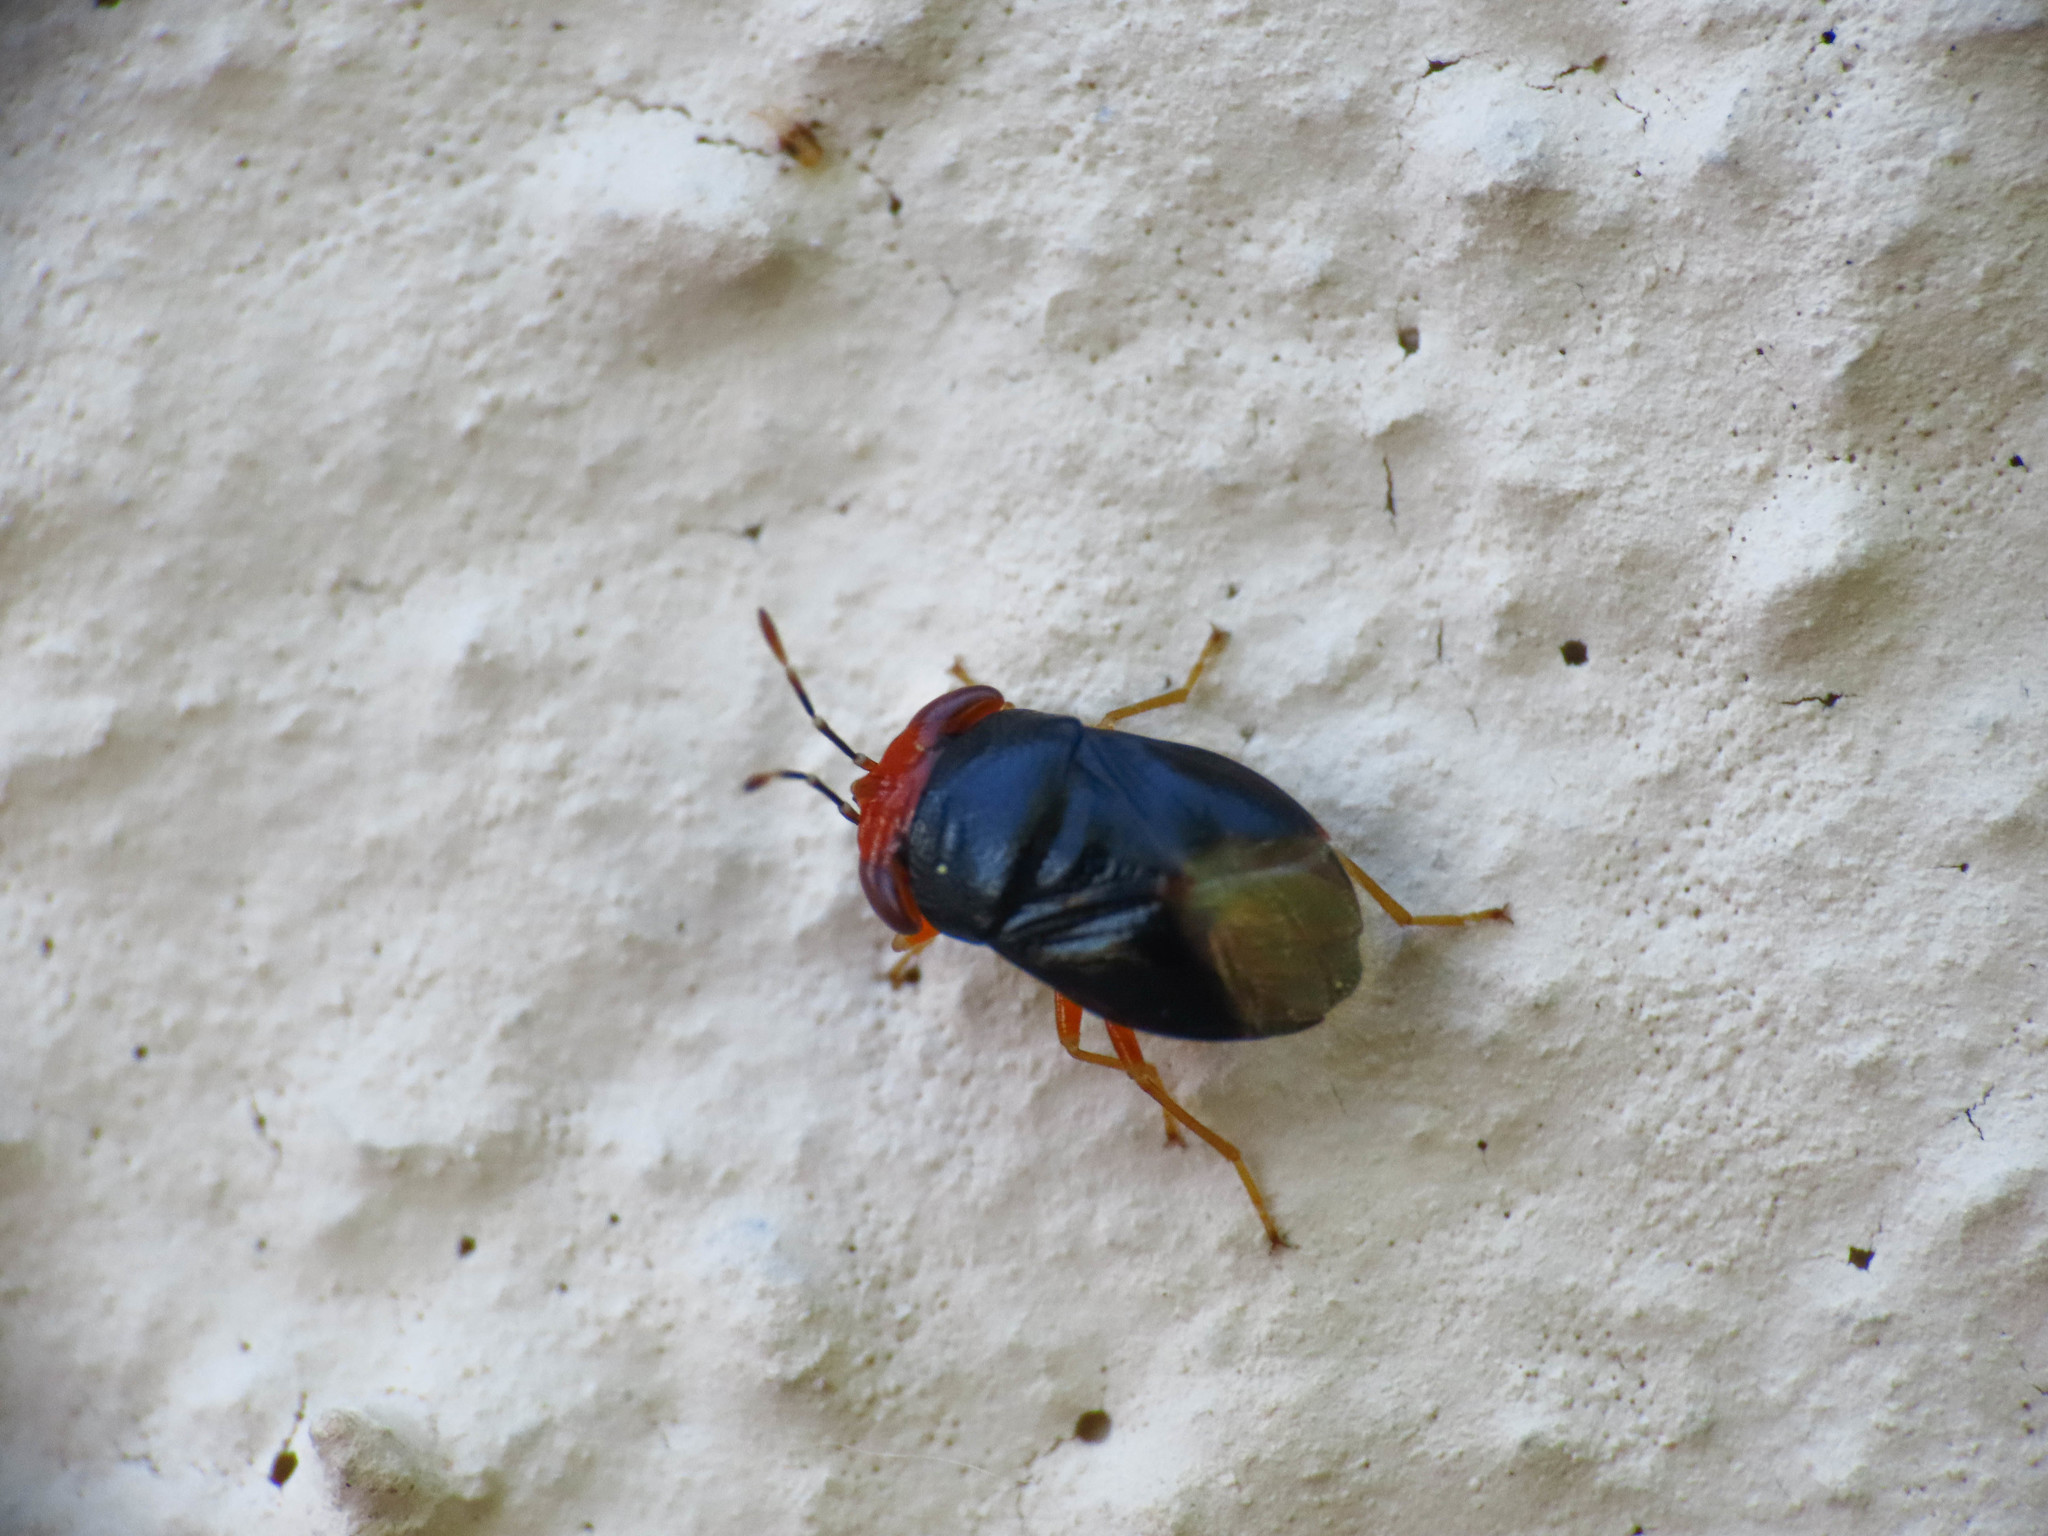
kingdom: Animalia
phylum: Arthropoda
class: Insecta
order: Hemiptera
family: Geocoridae
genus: Geocoris
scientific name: Geocoris erythrocephala
